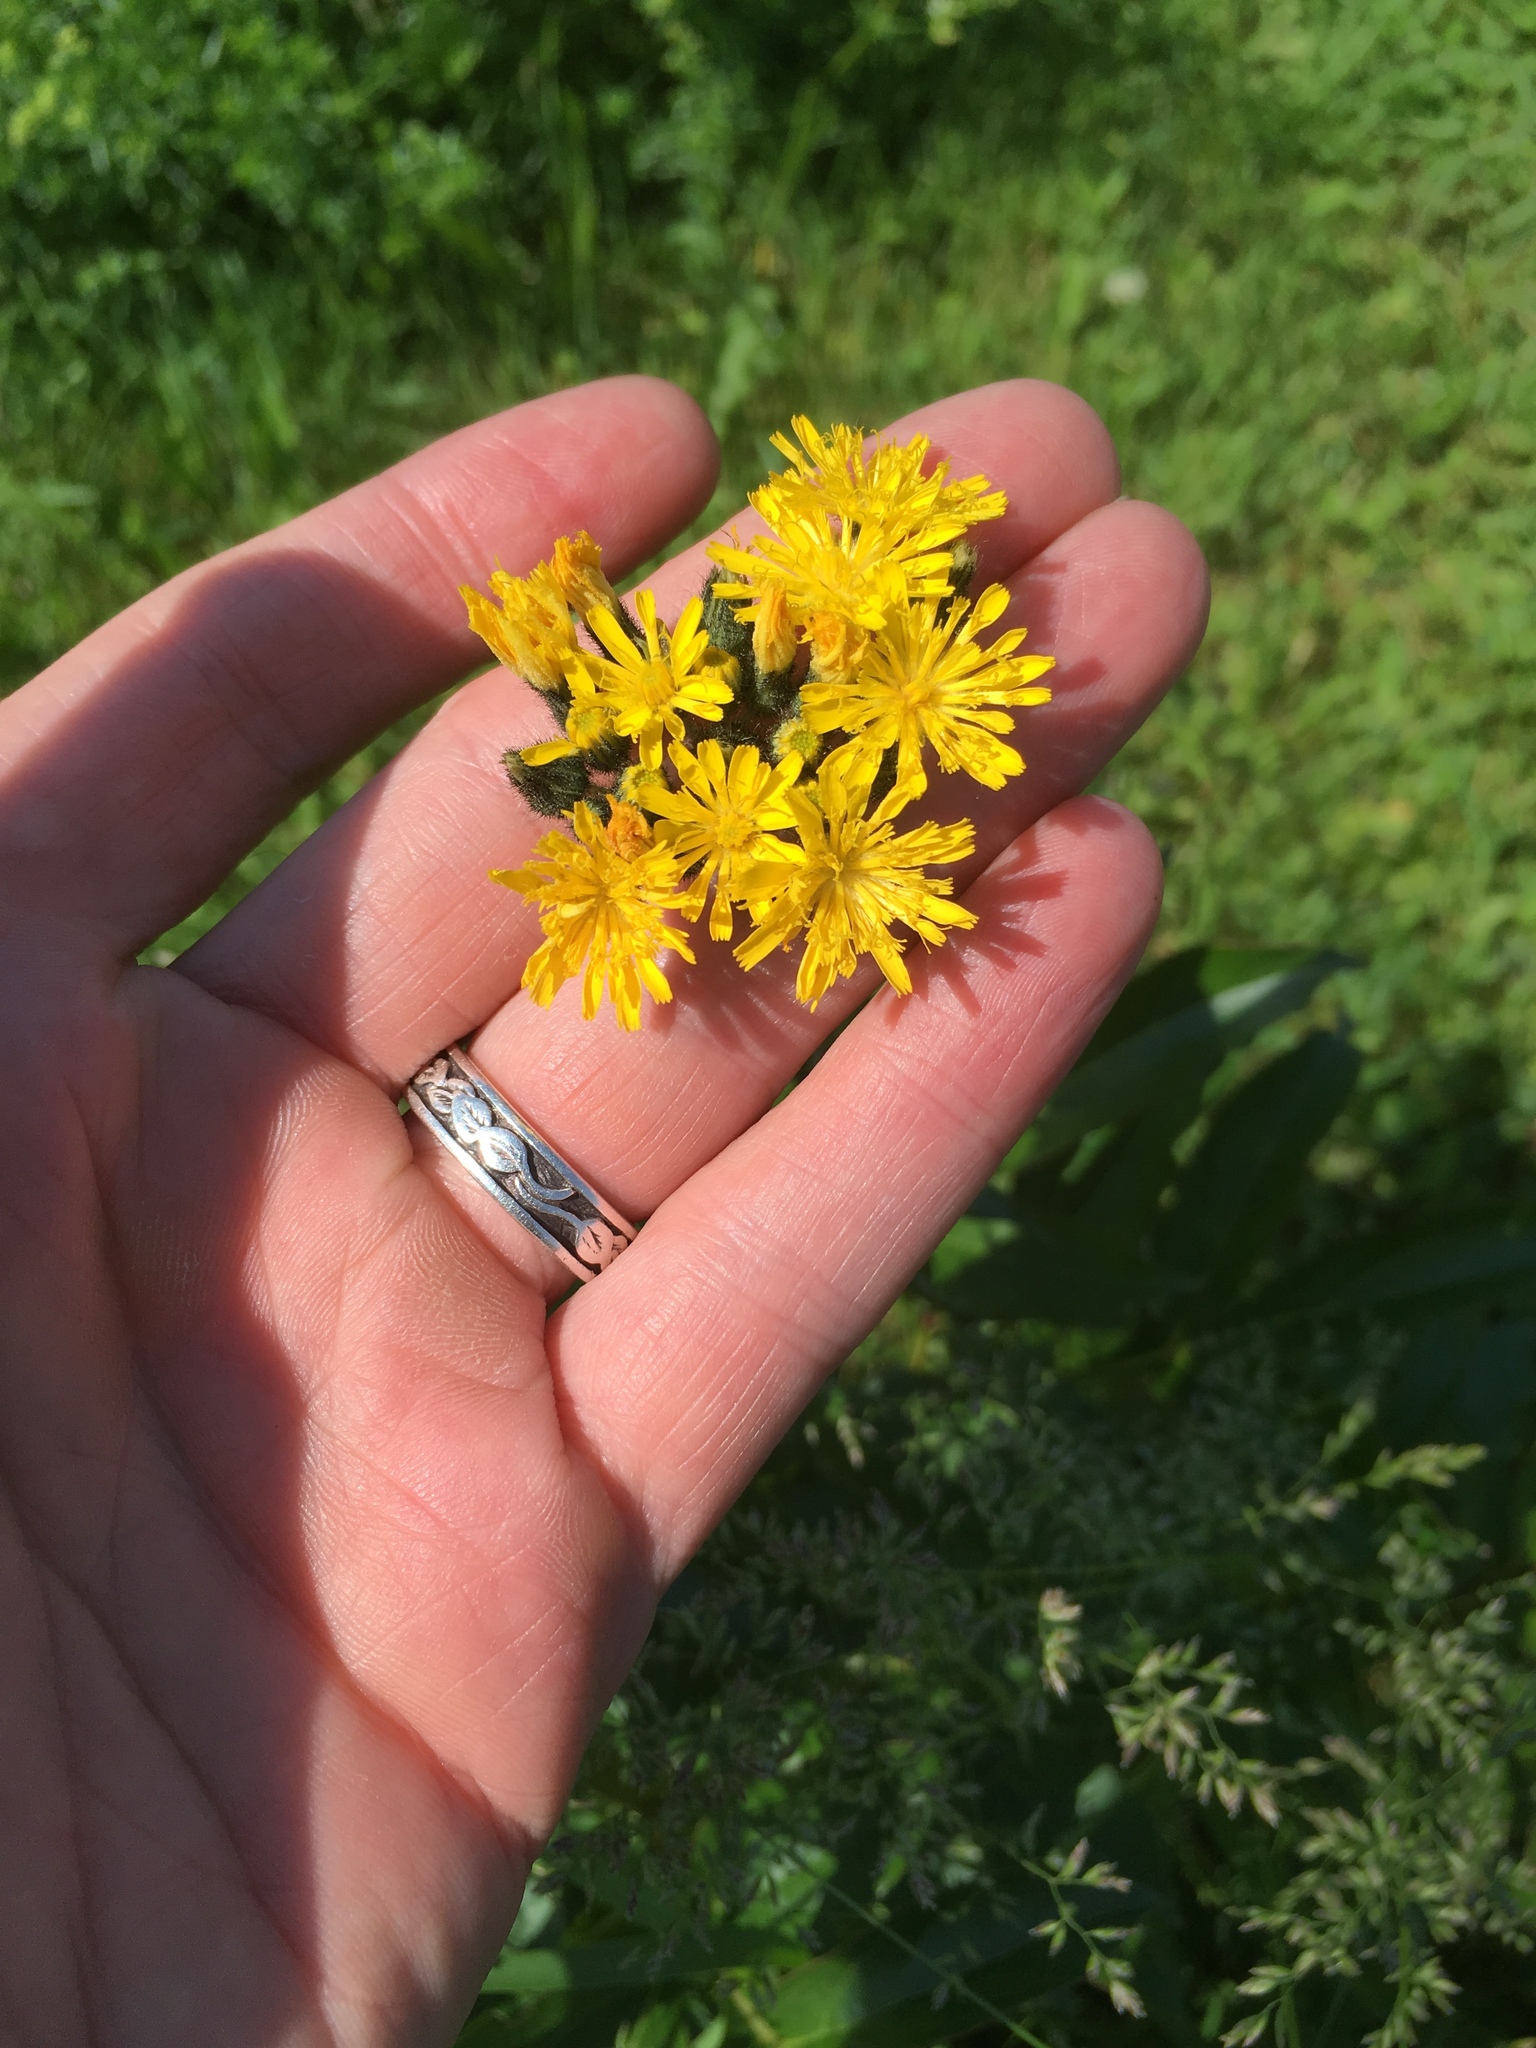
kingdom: Plantae
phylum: Tracheophyta
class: Magnoliopsida
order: Asterales
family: Asteraceae
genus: Pilosella
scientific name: Pilosella caespitosa
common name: Yellow fox-and-cubs
